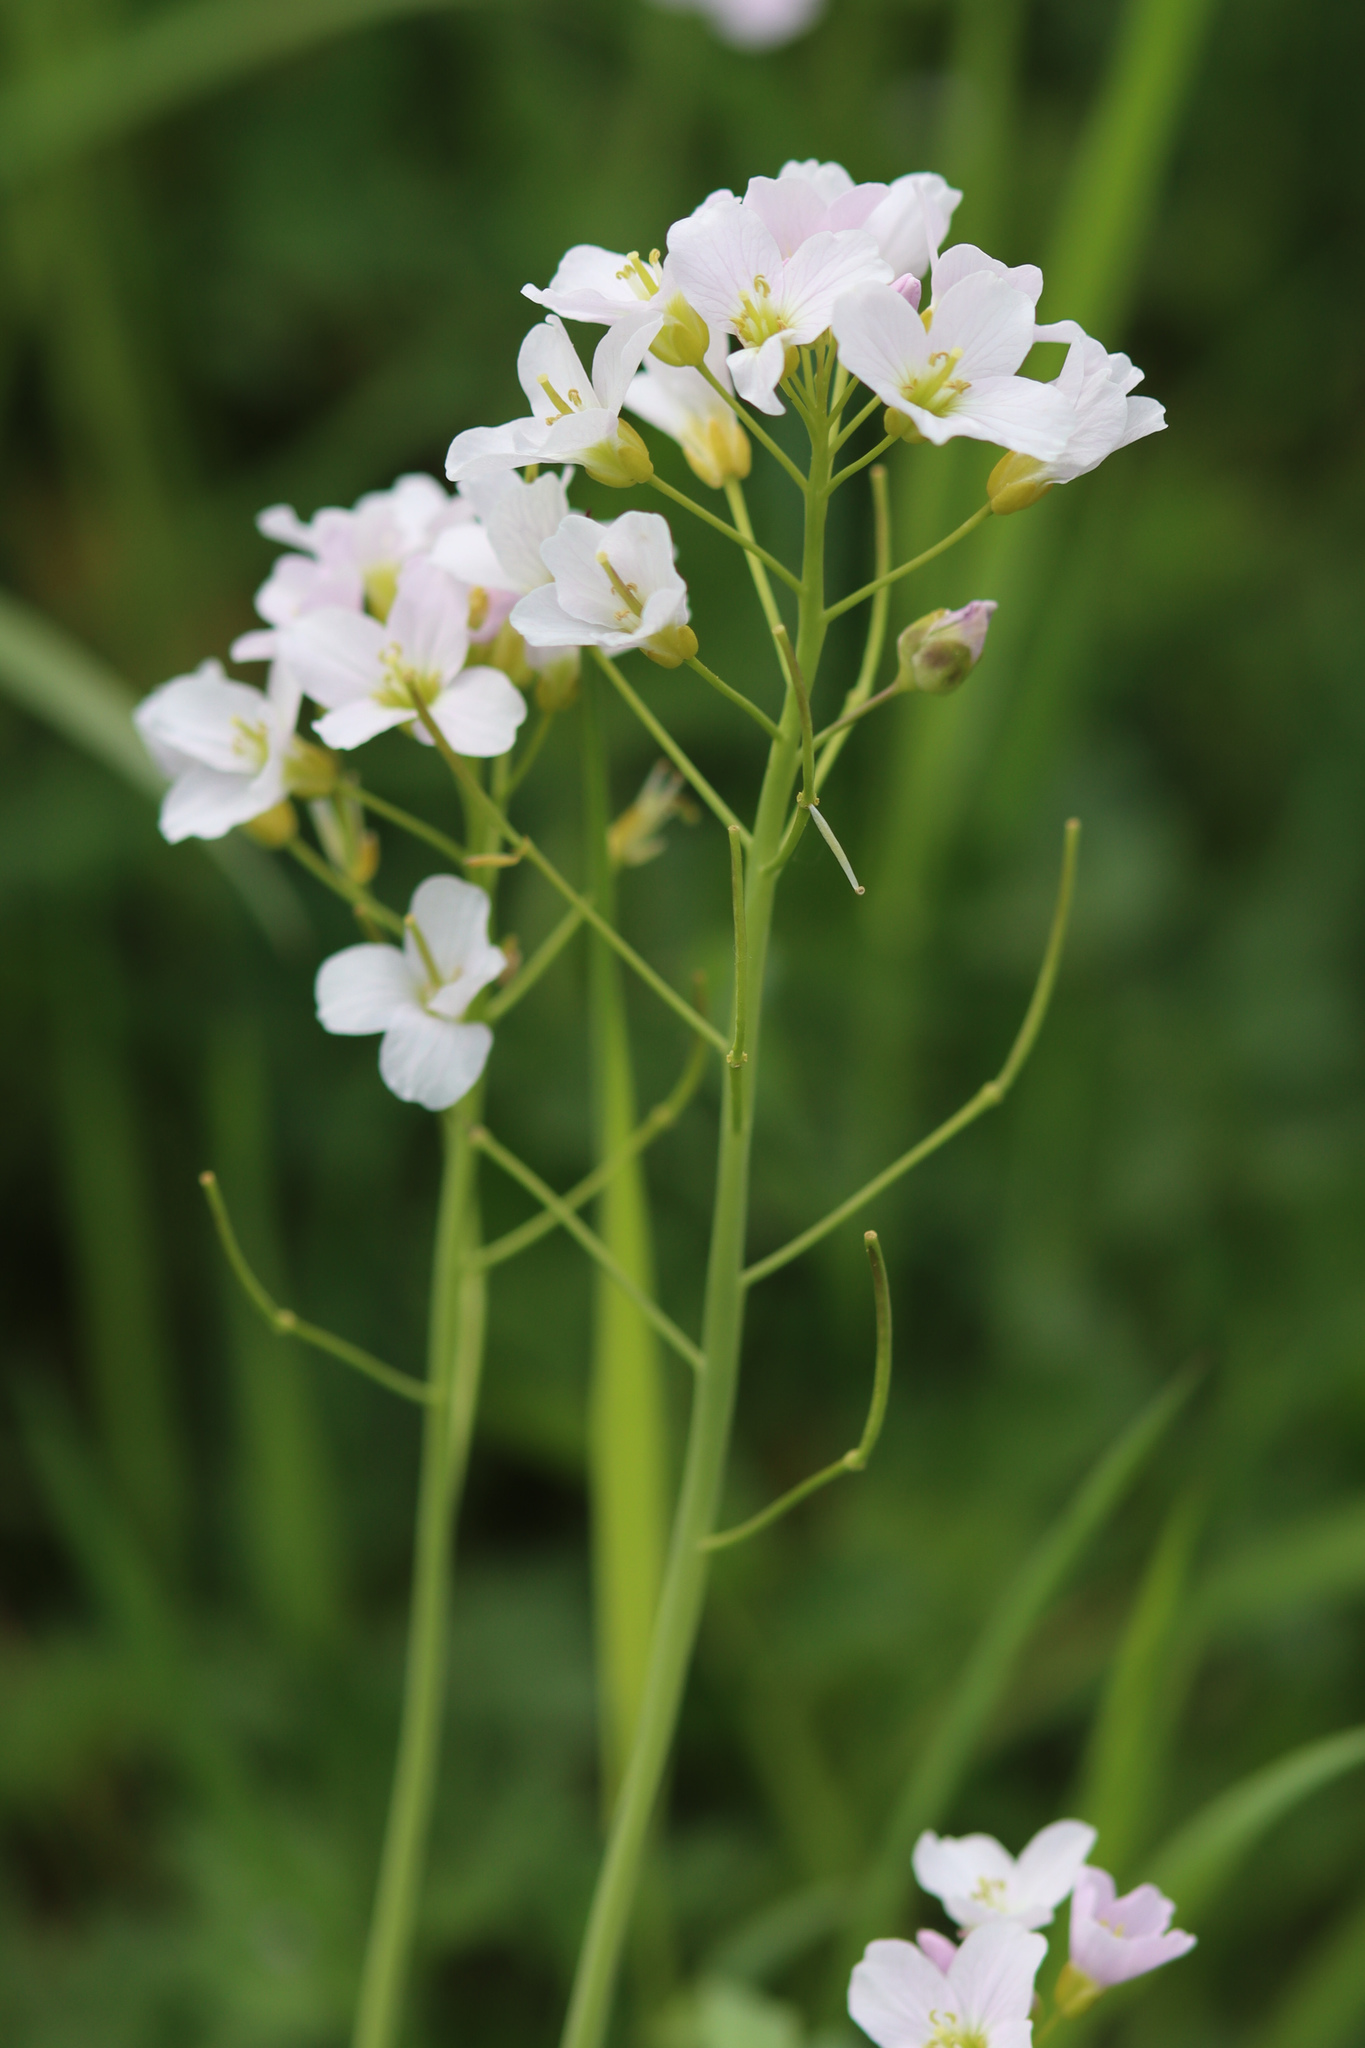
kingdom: Plantae
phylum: Tracheophyta
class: Magnoliopsida
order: Brassicales
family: Brassicaceae
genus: Cardamine
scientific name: Cardamine pratensis
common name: Cuckoo flower
